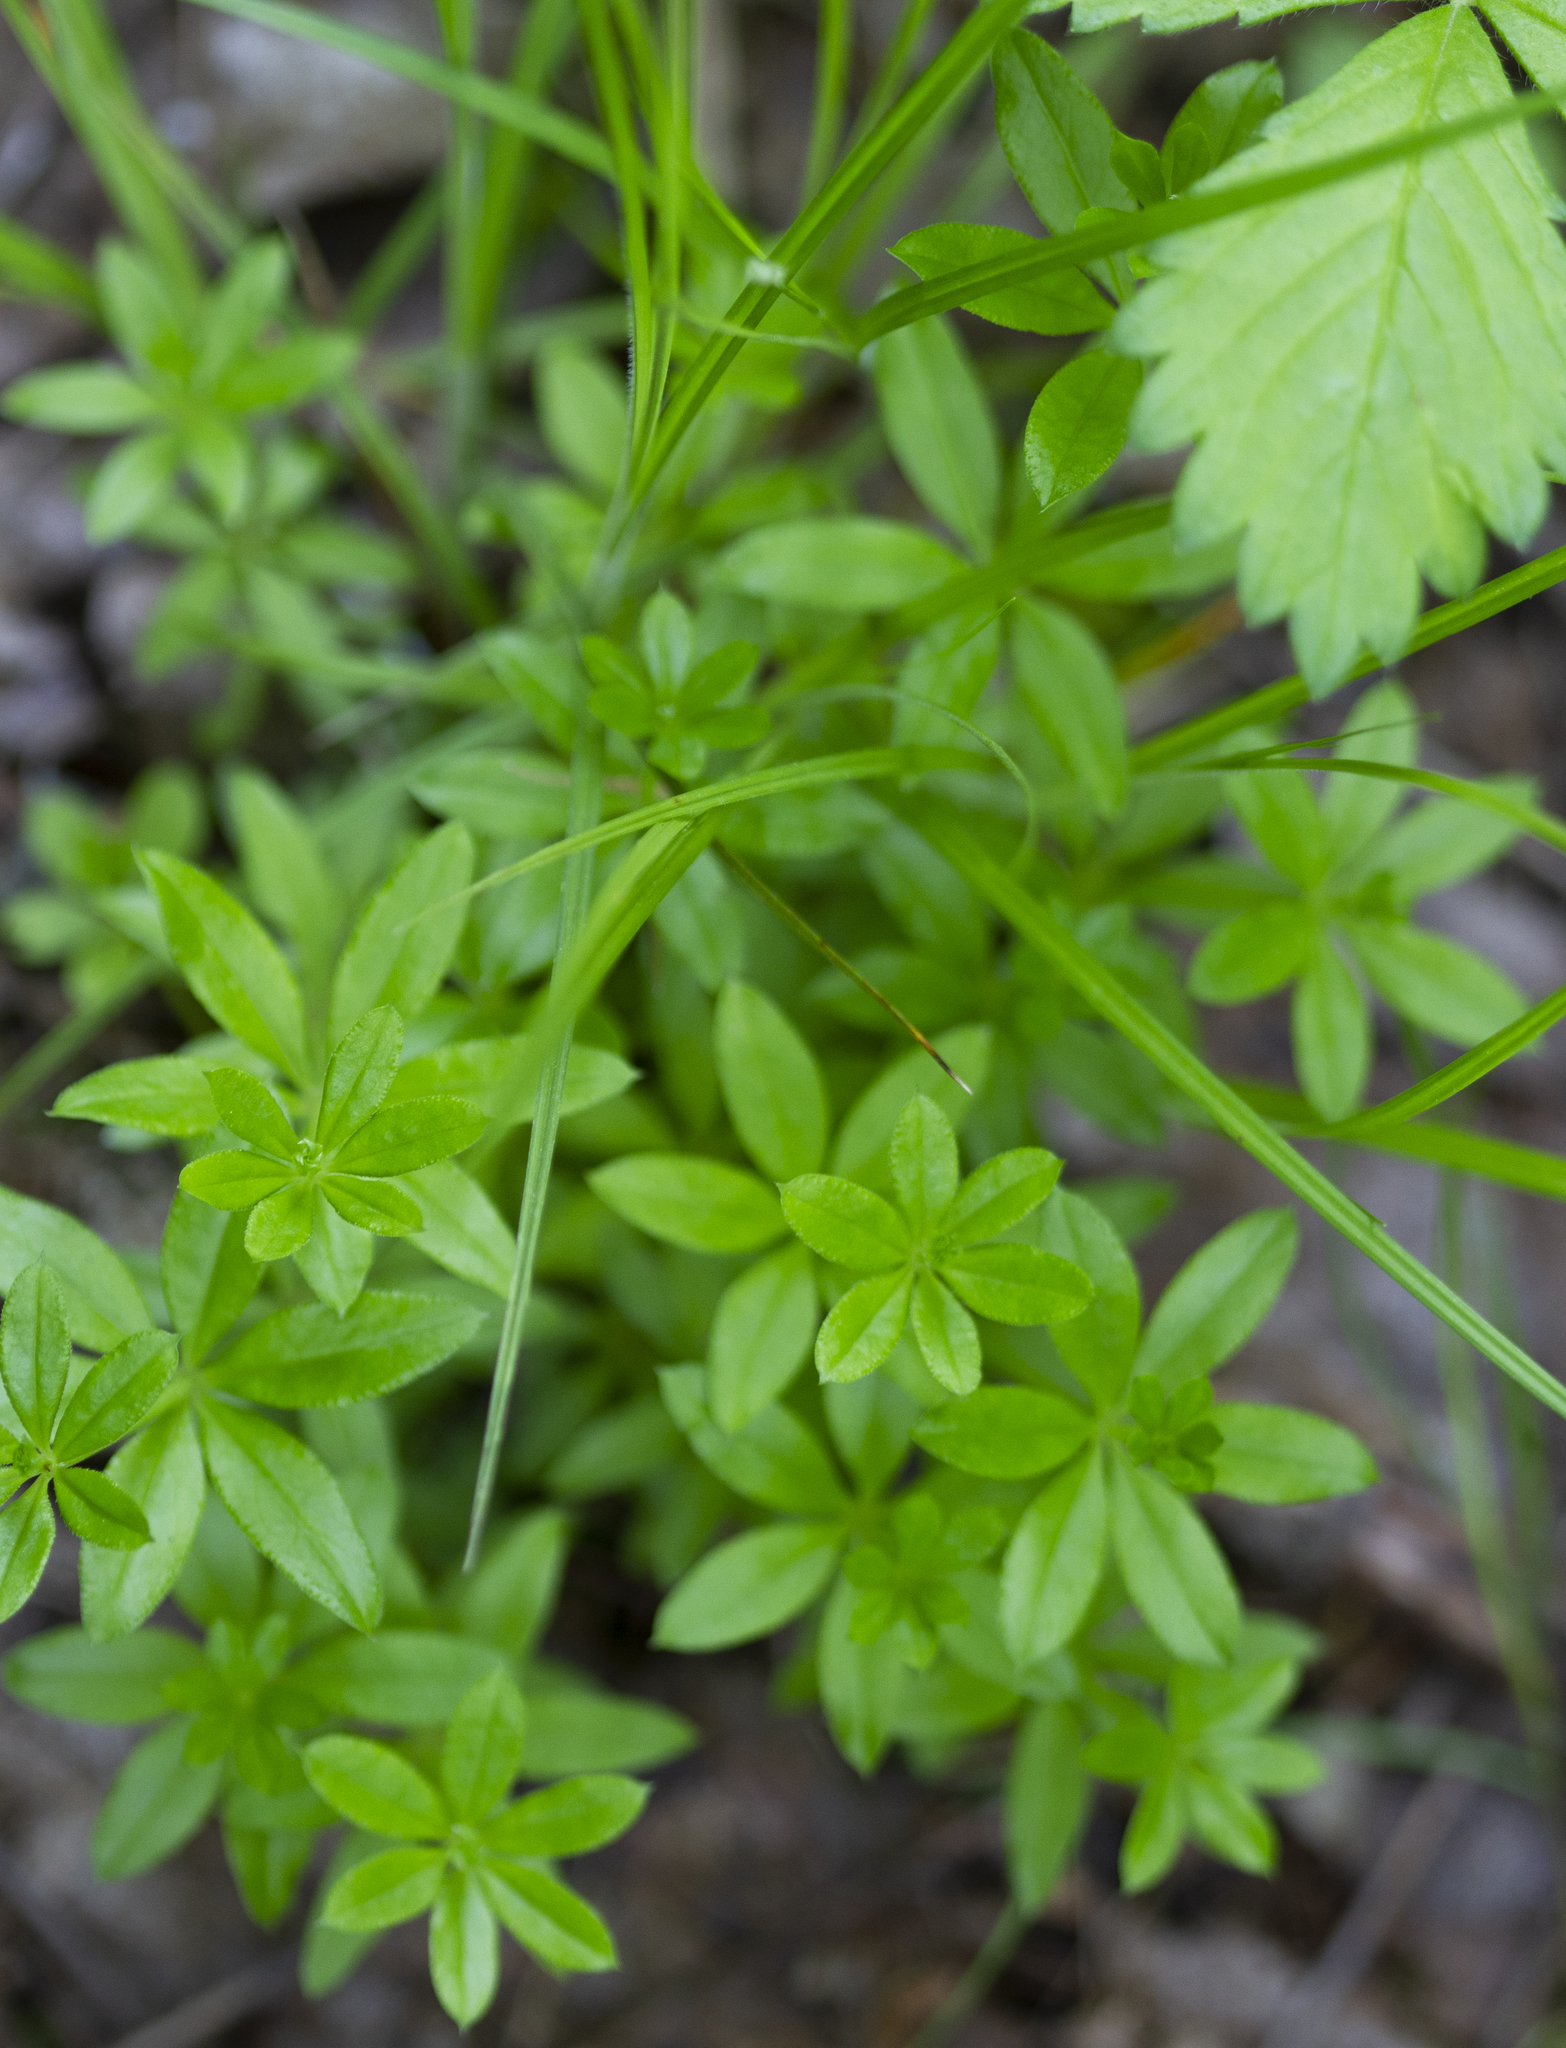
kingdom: Plantae
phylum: Tracheophyta
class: Magnoliopsida
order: Gentianales
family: Rubiaceae
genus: Galium
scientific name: Galium triflorum
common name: Fragrant bedstraw
